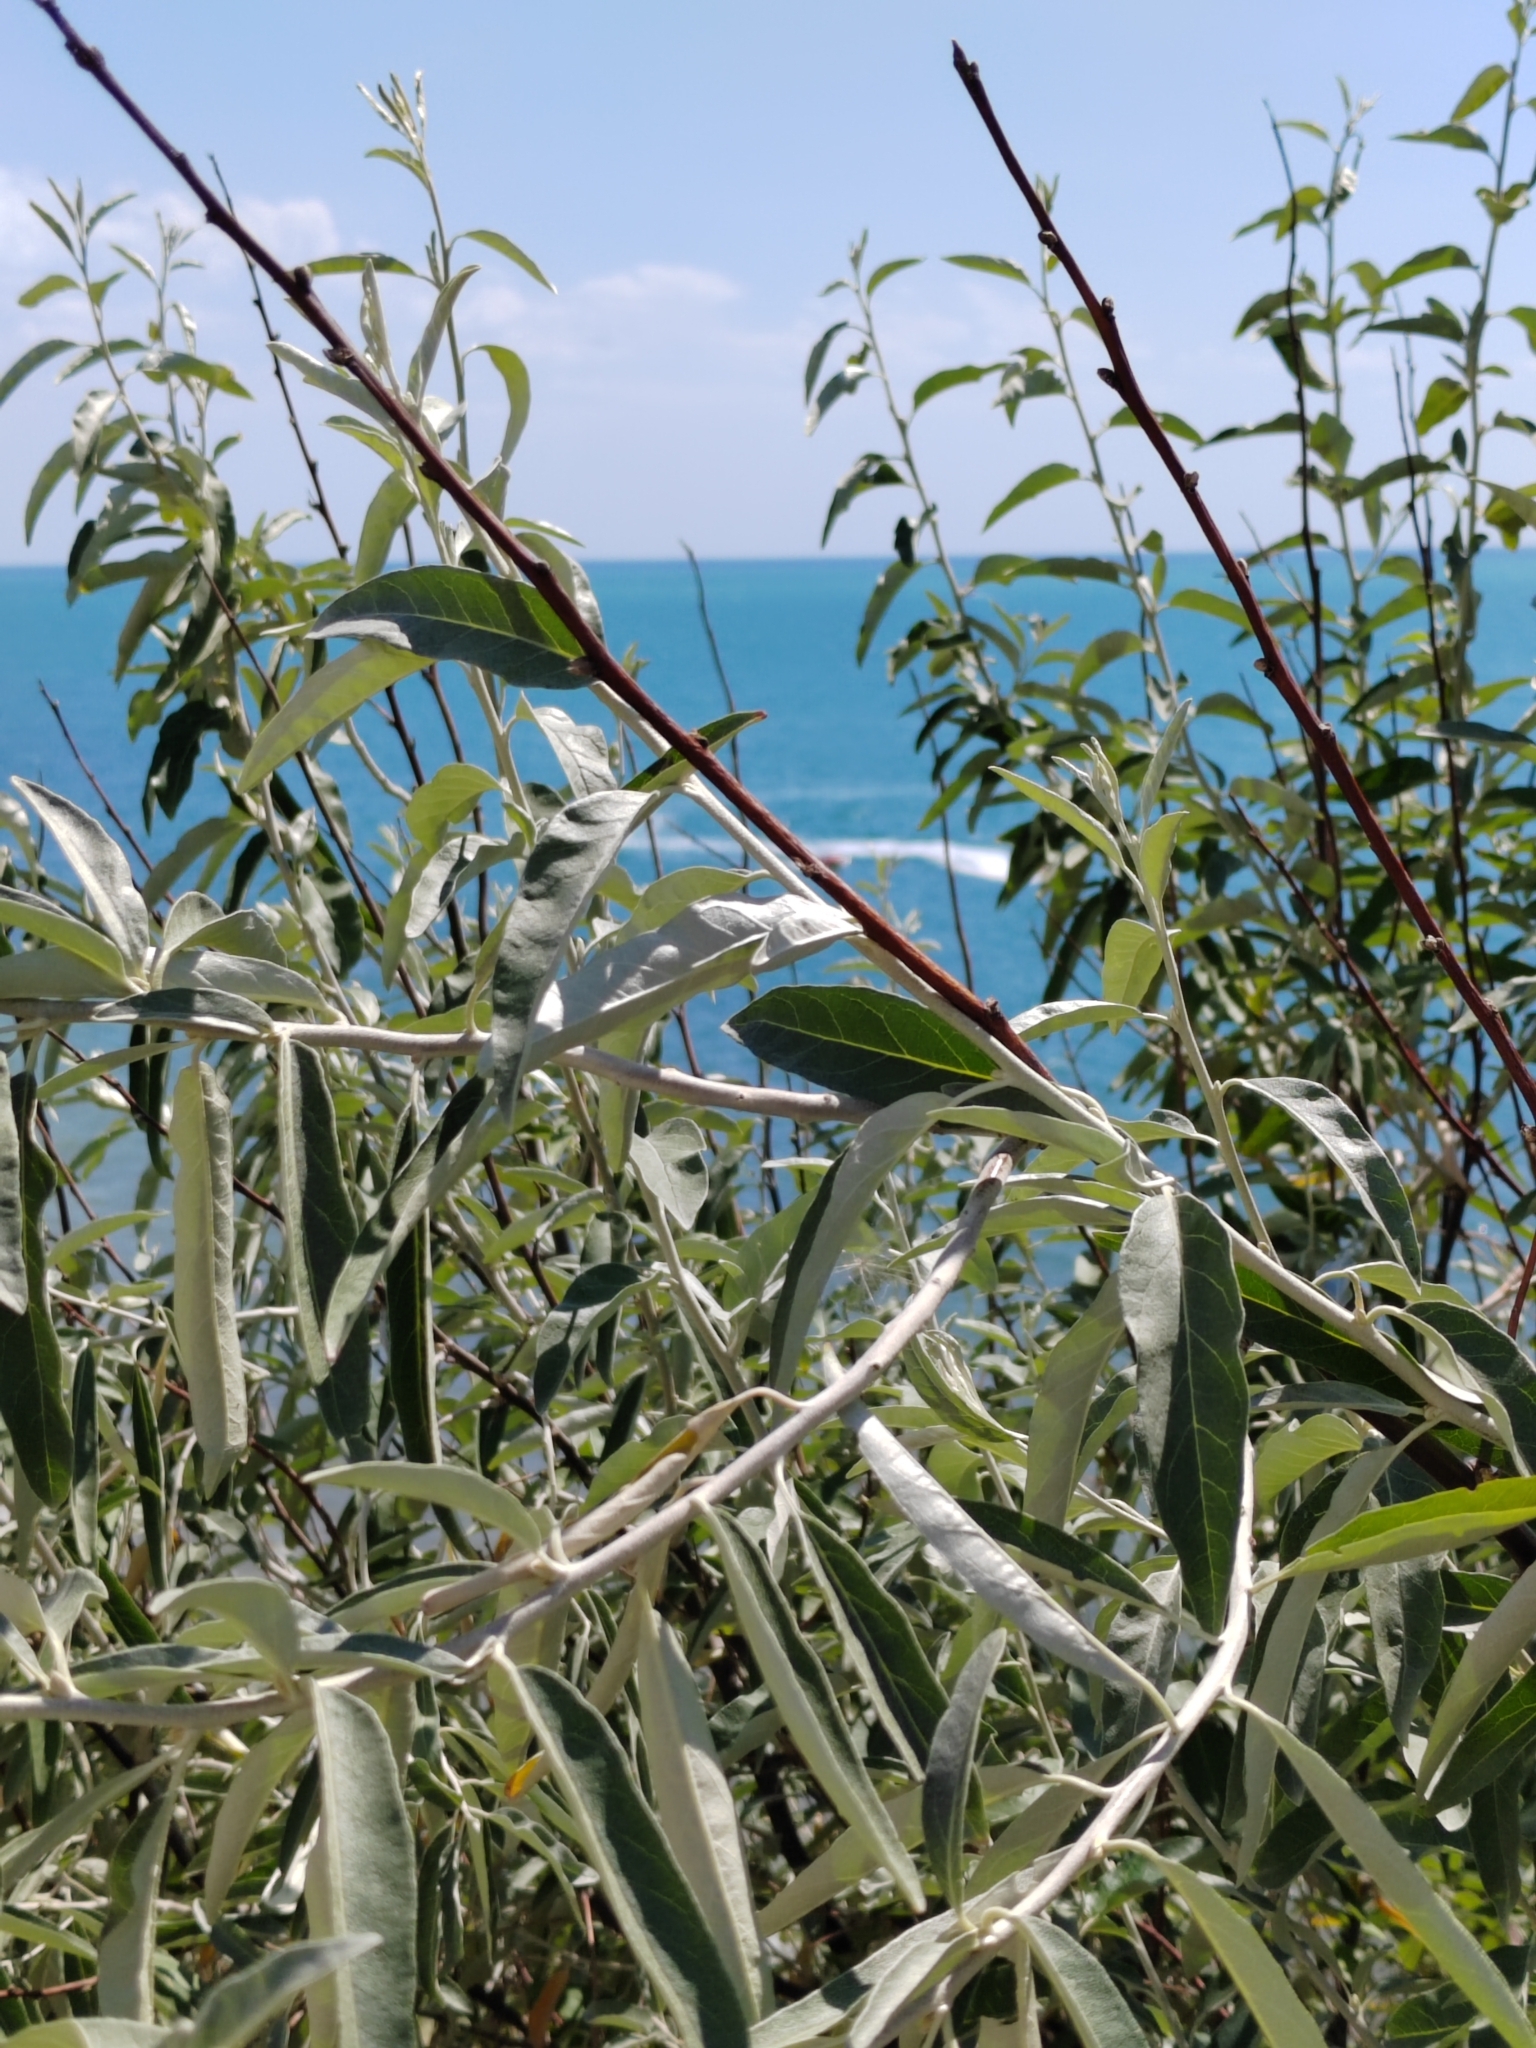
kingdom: Plantae
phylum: Tracheophyta
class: Magnoliopsida
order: Rosales
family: Elaeagnaceae
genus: Elaeagnus
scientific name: Elaeagnus angustifolia
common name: Russian olive
